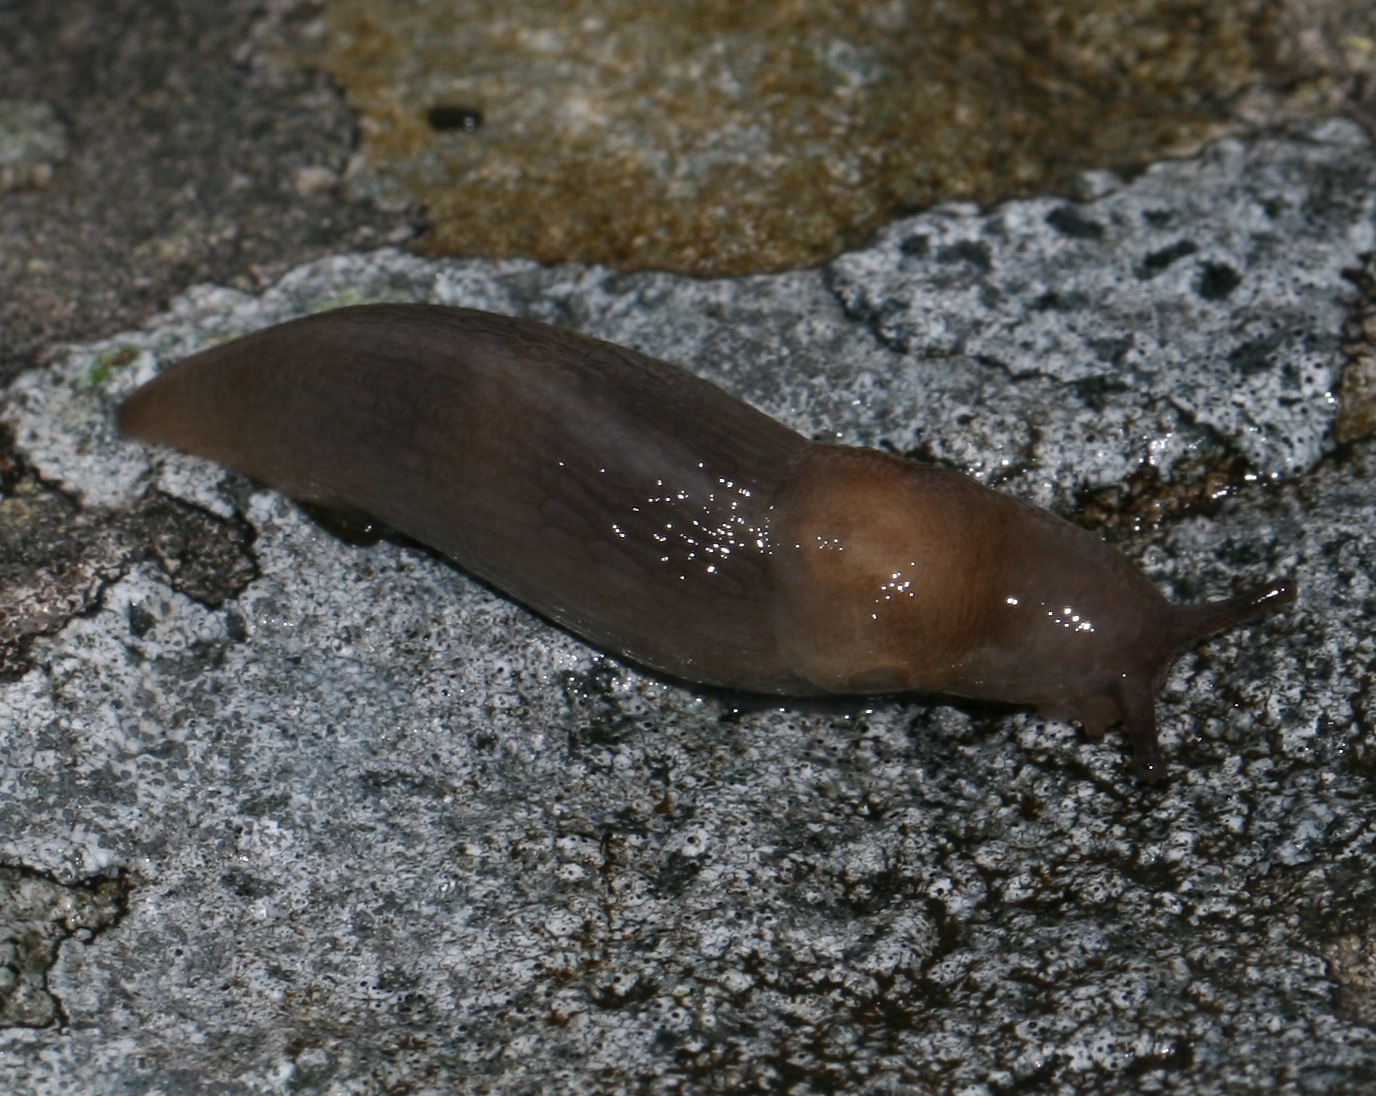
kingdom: Animalia
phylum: Mollusca
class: Gastropoda
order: Stylommatophora
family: Limacidae
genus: Lehmannia
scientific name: Lehmannia marginata
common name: Tree slug
